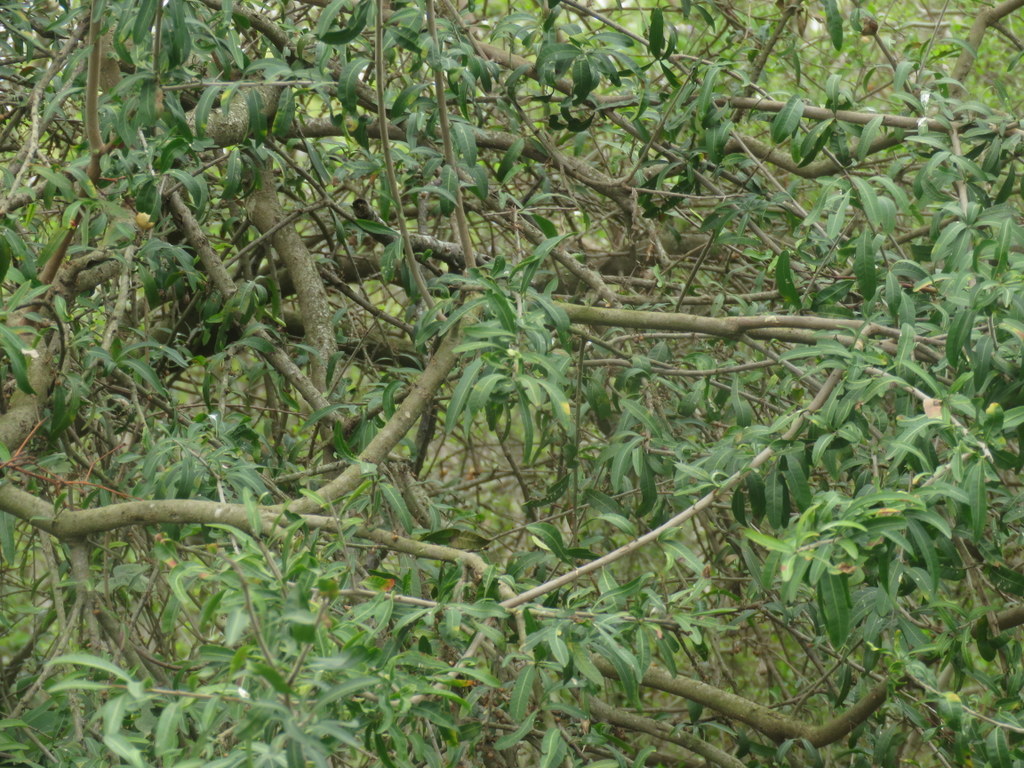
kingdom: Plantae
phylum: Tracheophyta
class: Magnoliopsida
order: Malpighiales
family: Euphorbiaceae
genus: Sapium
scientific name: Sapium haematospermum
